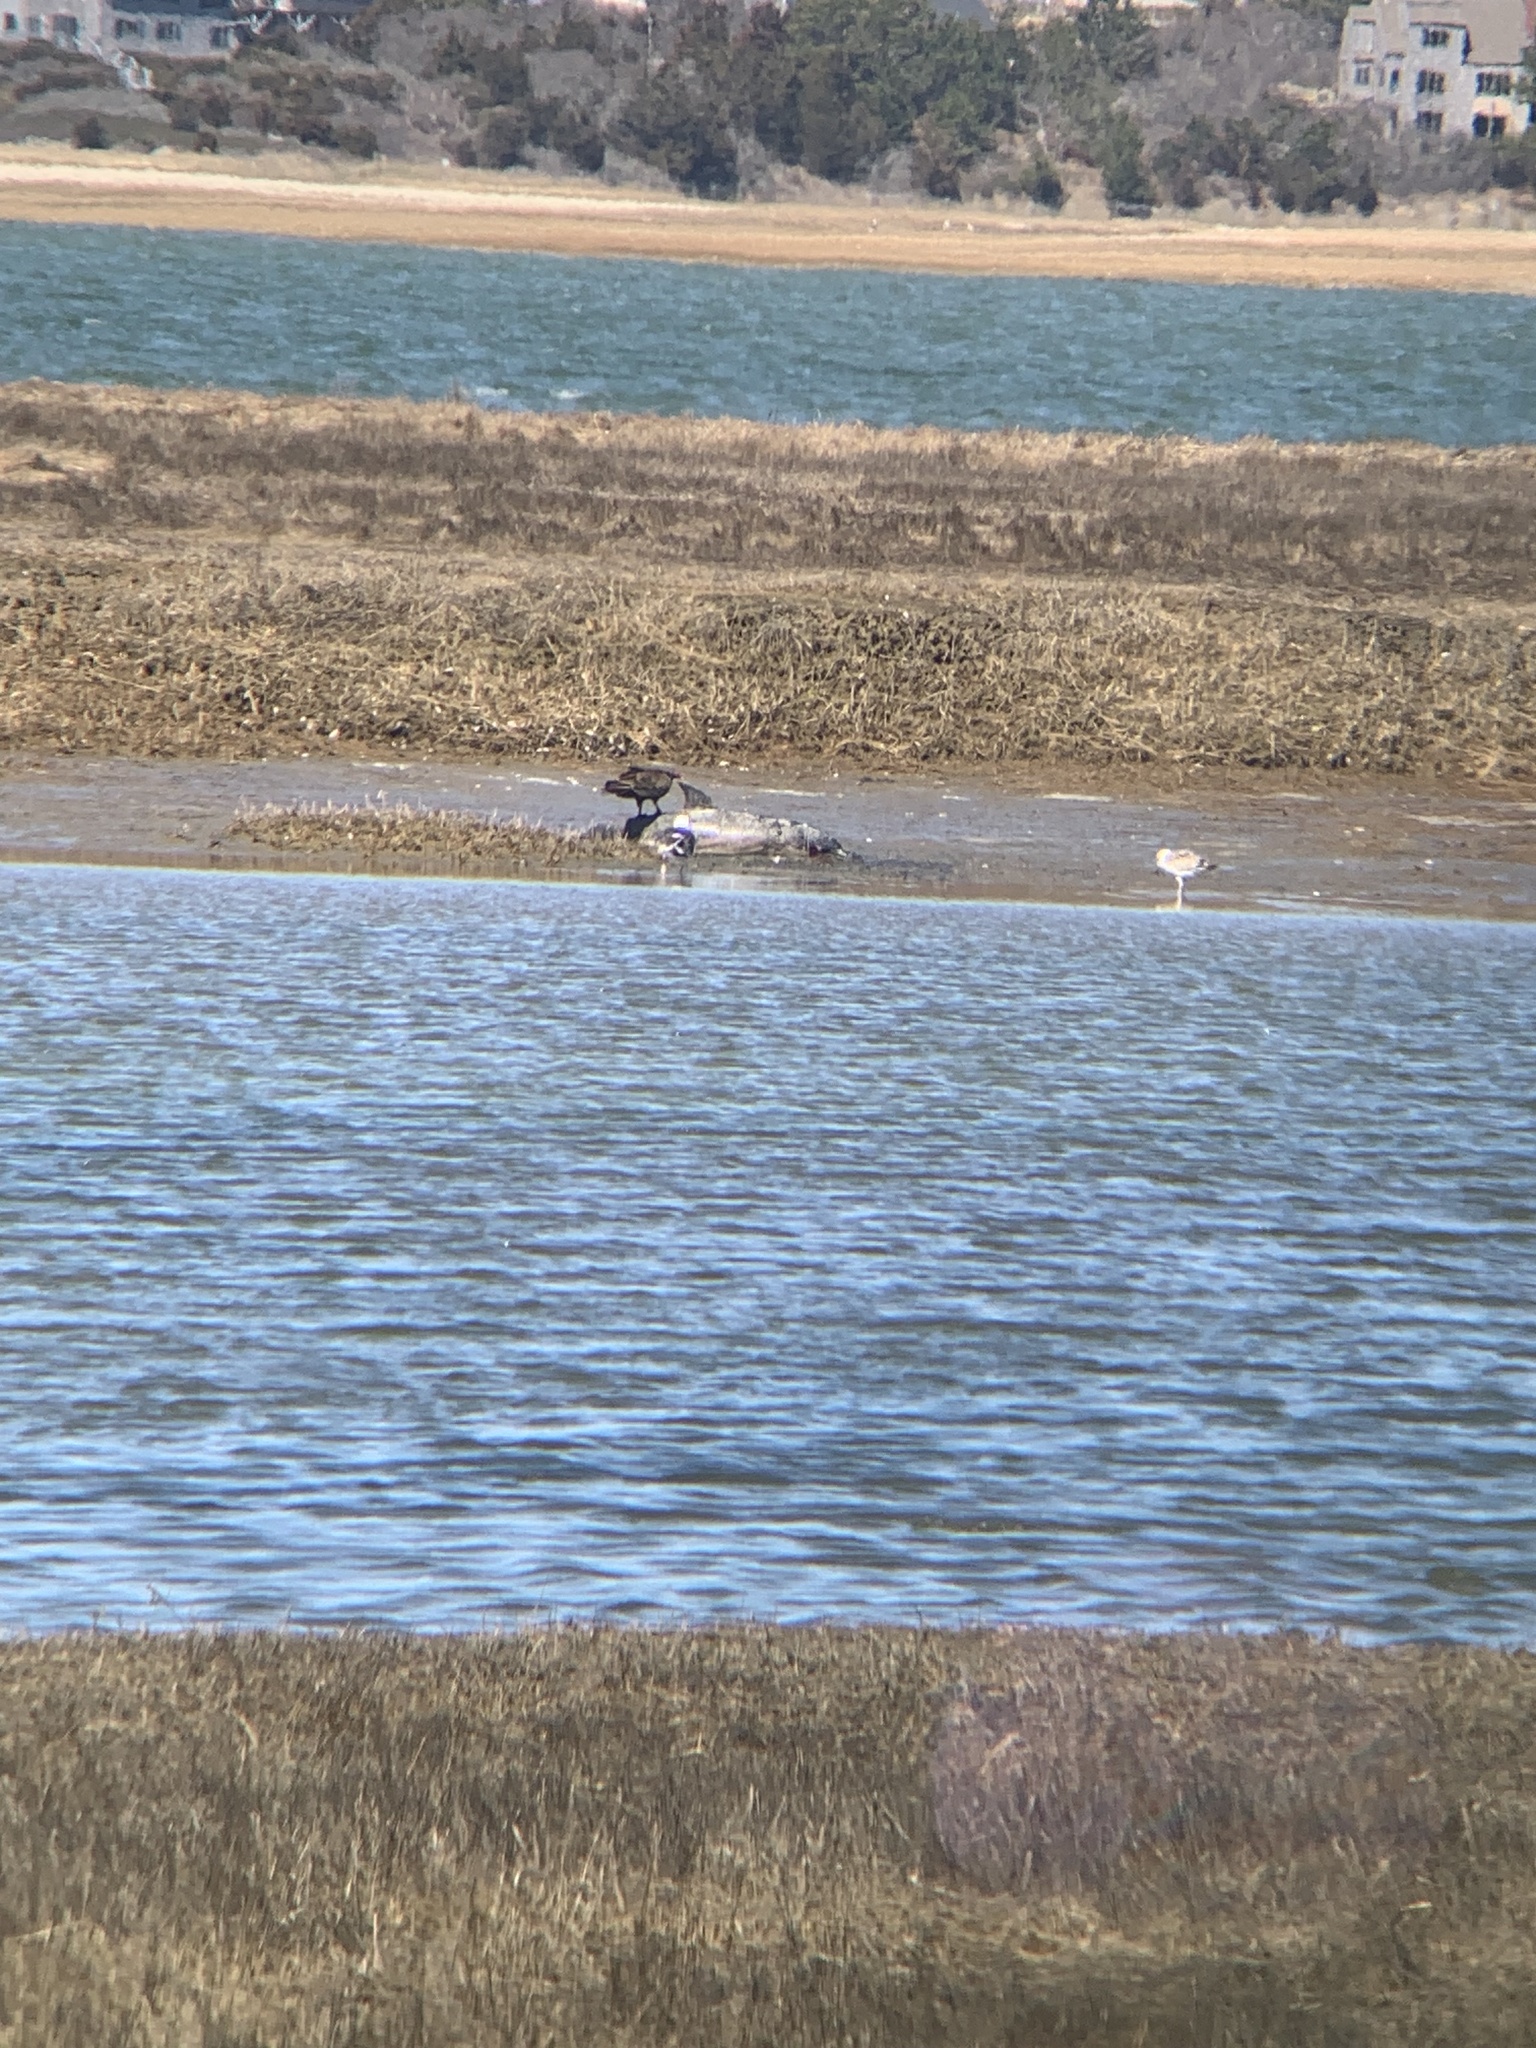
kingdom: Animalia
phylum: Chordata
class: Aves
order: Accipitriformes
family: Cathartidae
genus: Cathartes
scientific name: Cathartes aura
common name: Turkey vulture
